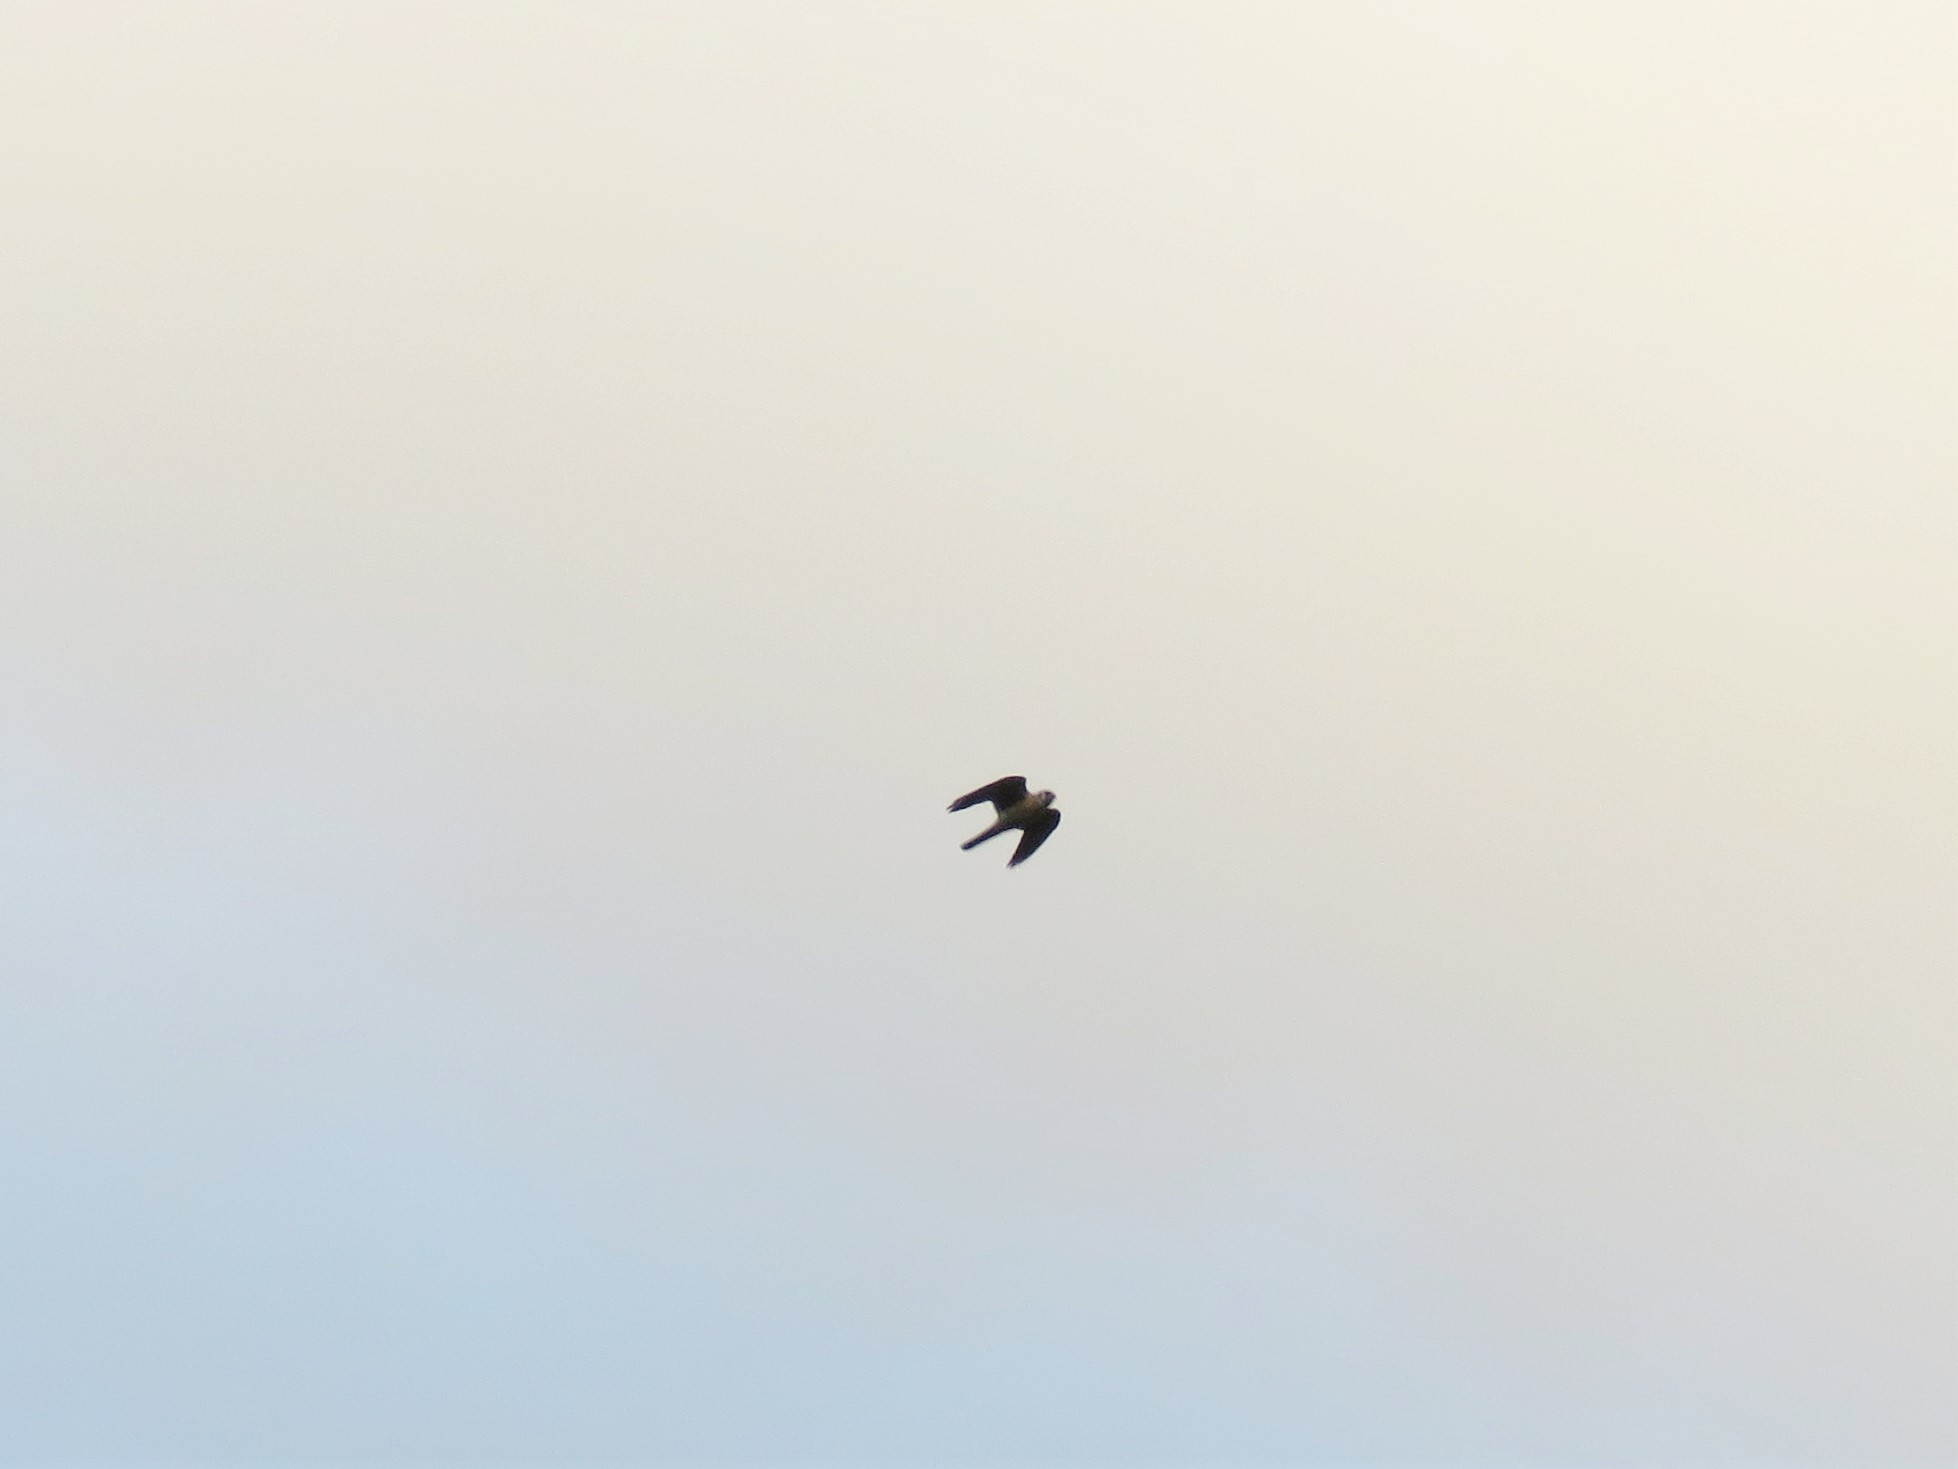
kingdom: Animalia
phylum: Chordata
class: Aves
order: Falconiformes
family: Falconidae
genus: Falco
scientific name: Falco sparverius
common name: American kestrel
